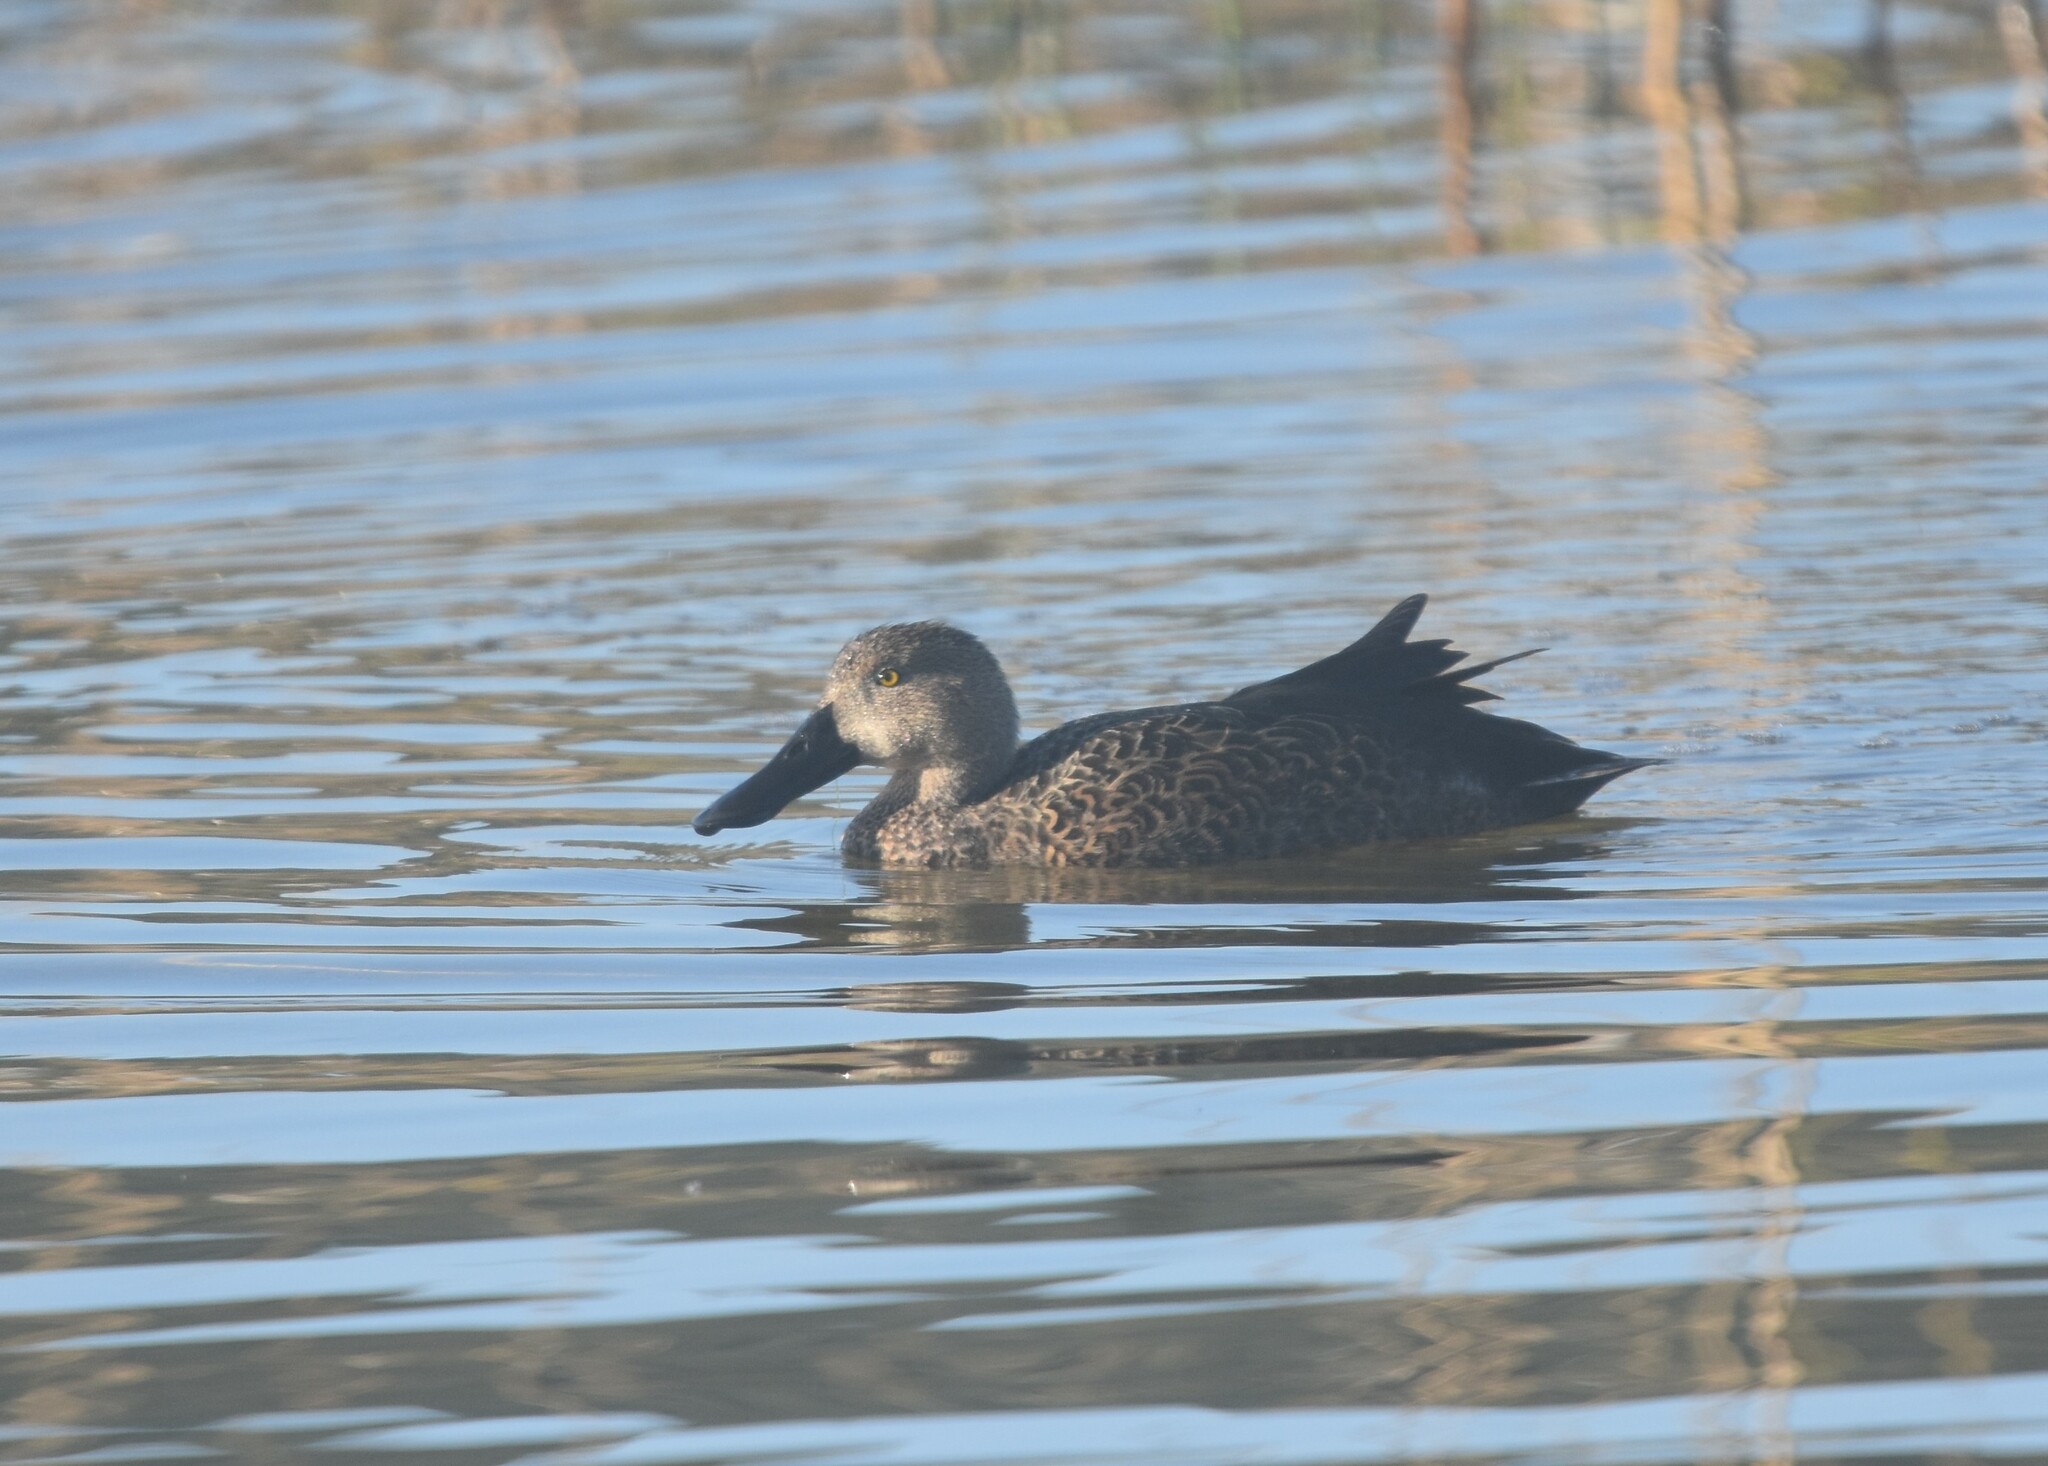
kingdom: Animalia
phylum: Chordata
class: Aves
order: Anseriformes
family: Anatidae
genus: Spatula
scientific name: Spatula smithii
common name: Cape shoveler
